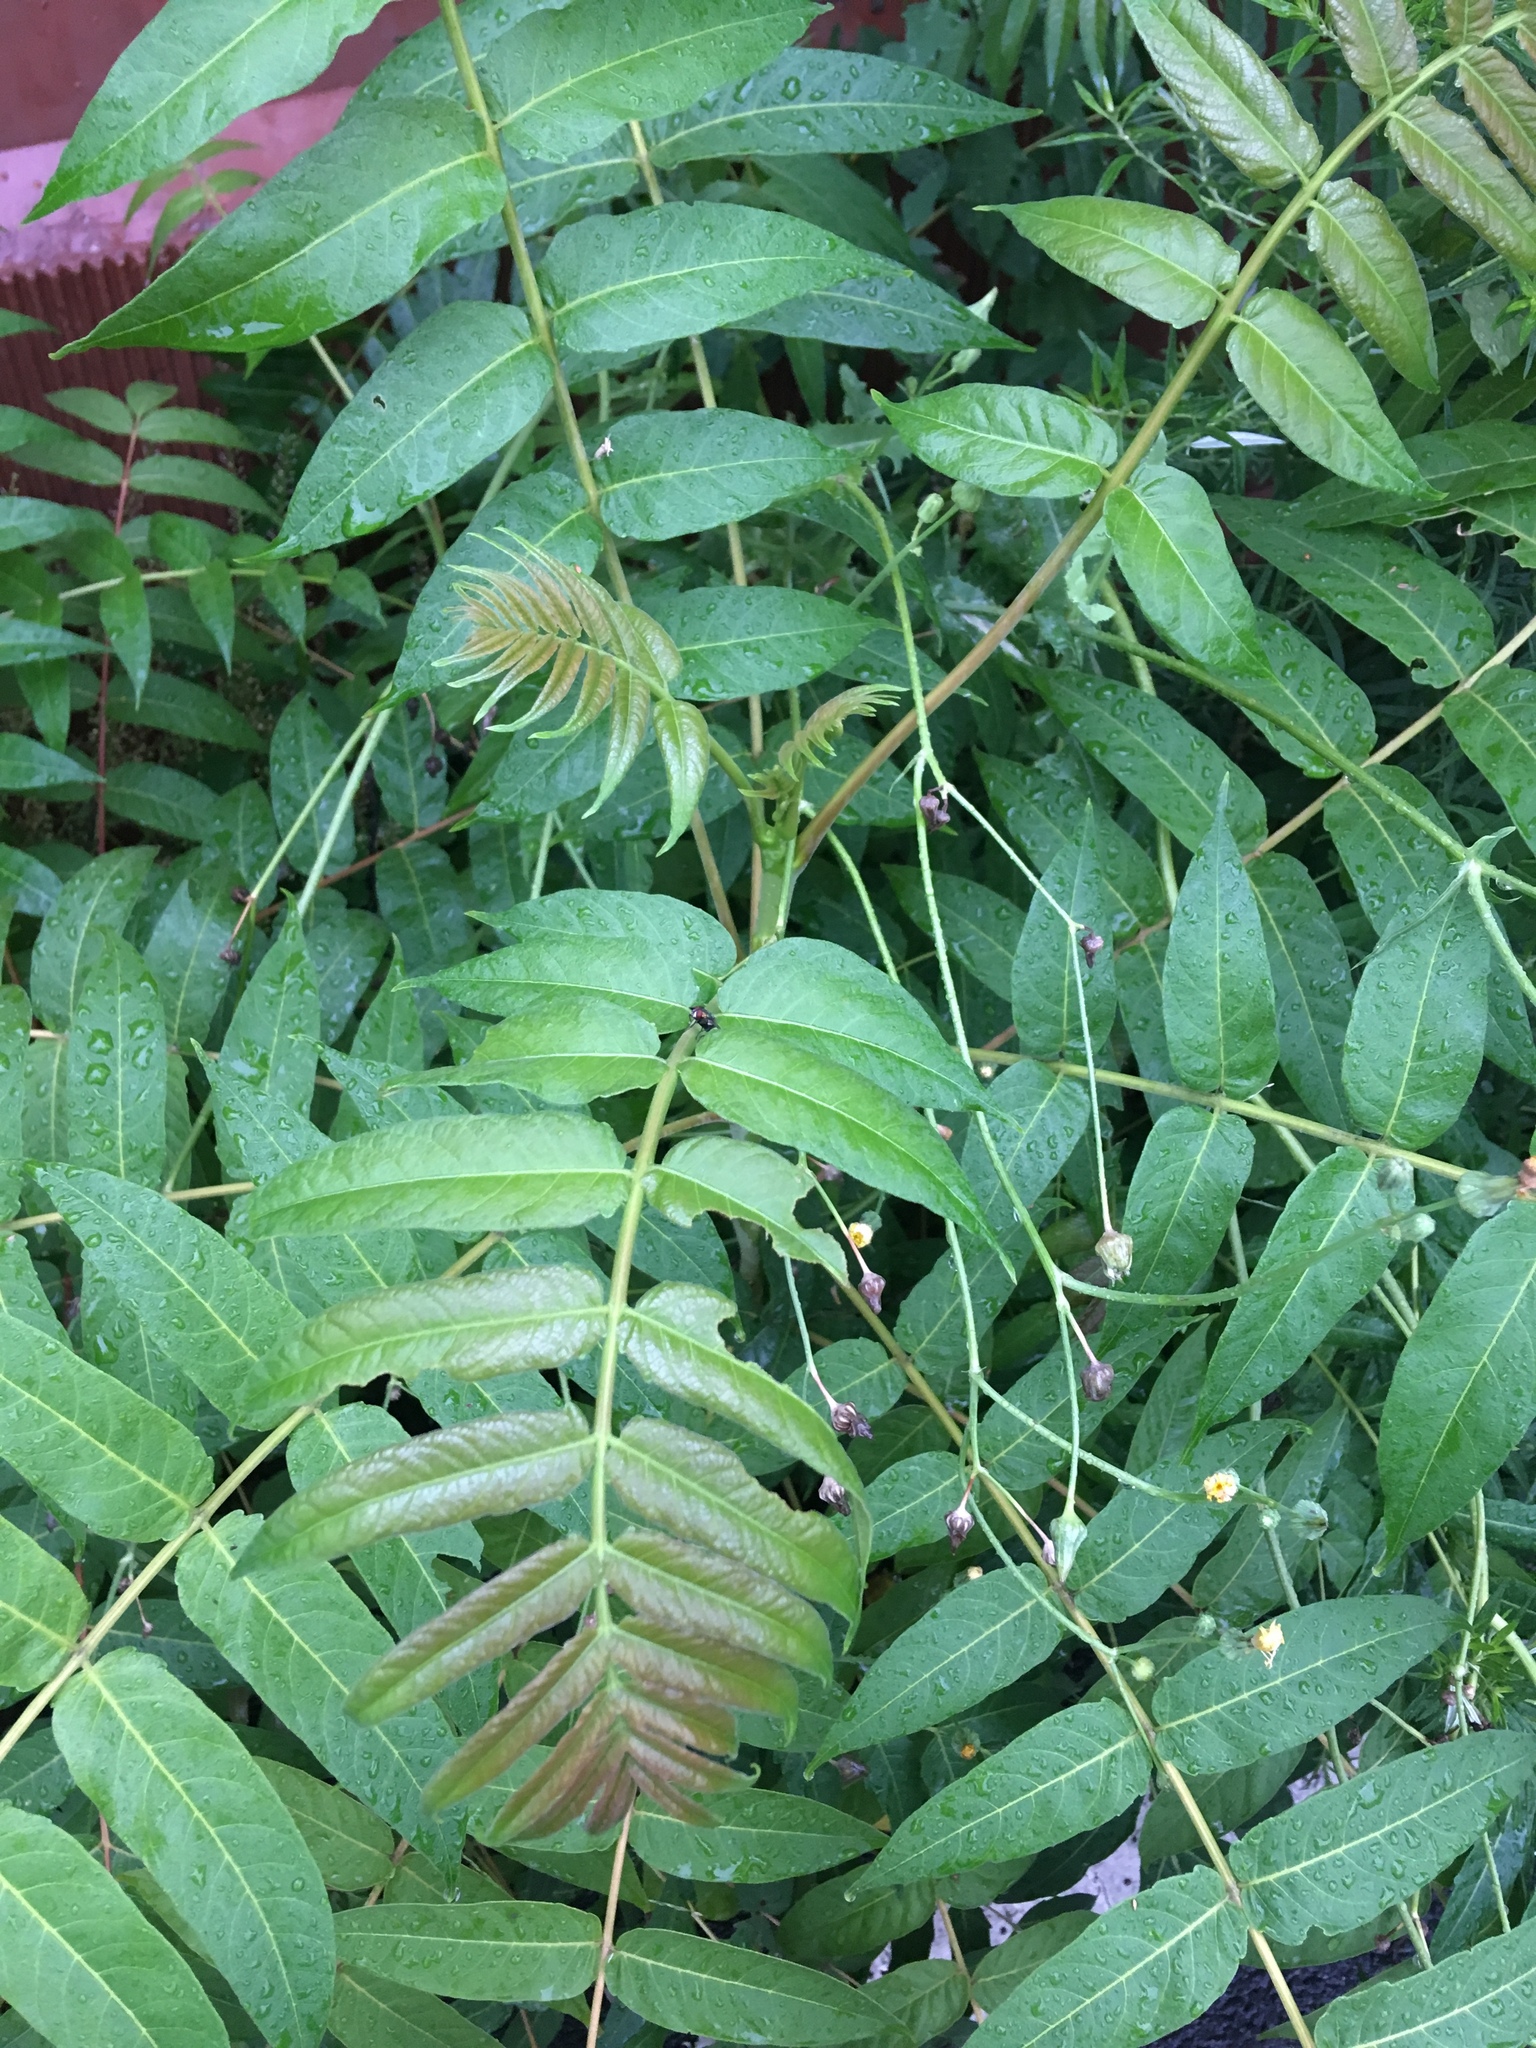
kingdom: Plantae
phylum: Tracheophyta
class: Magnoliopsida
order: Sapindales
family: Simaroubaceae
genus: Ailanthus
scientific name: Ailanthus altissima
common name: Tree-of-heaven
